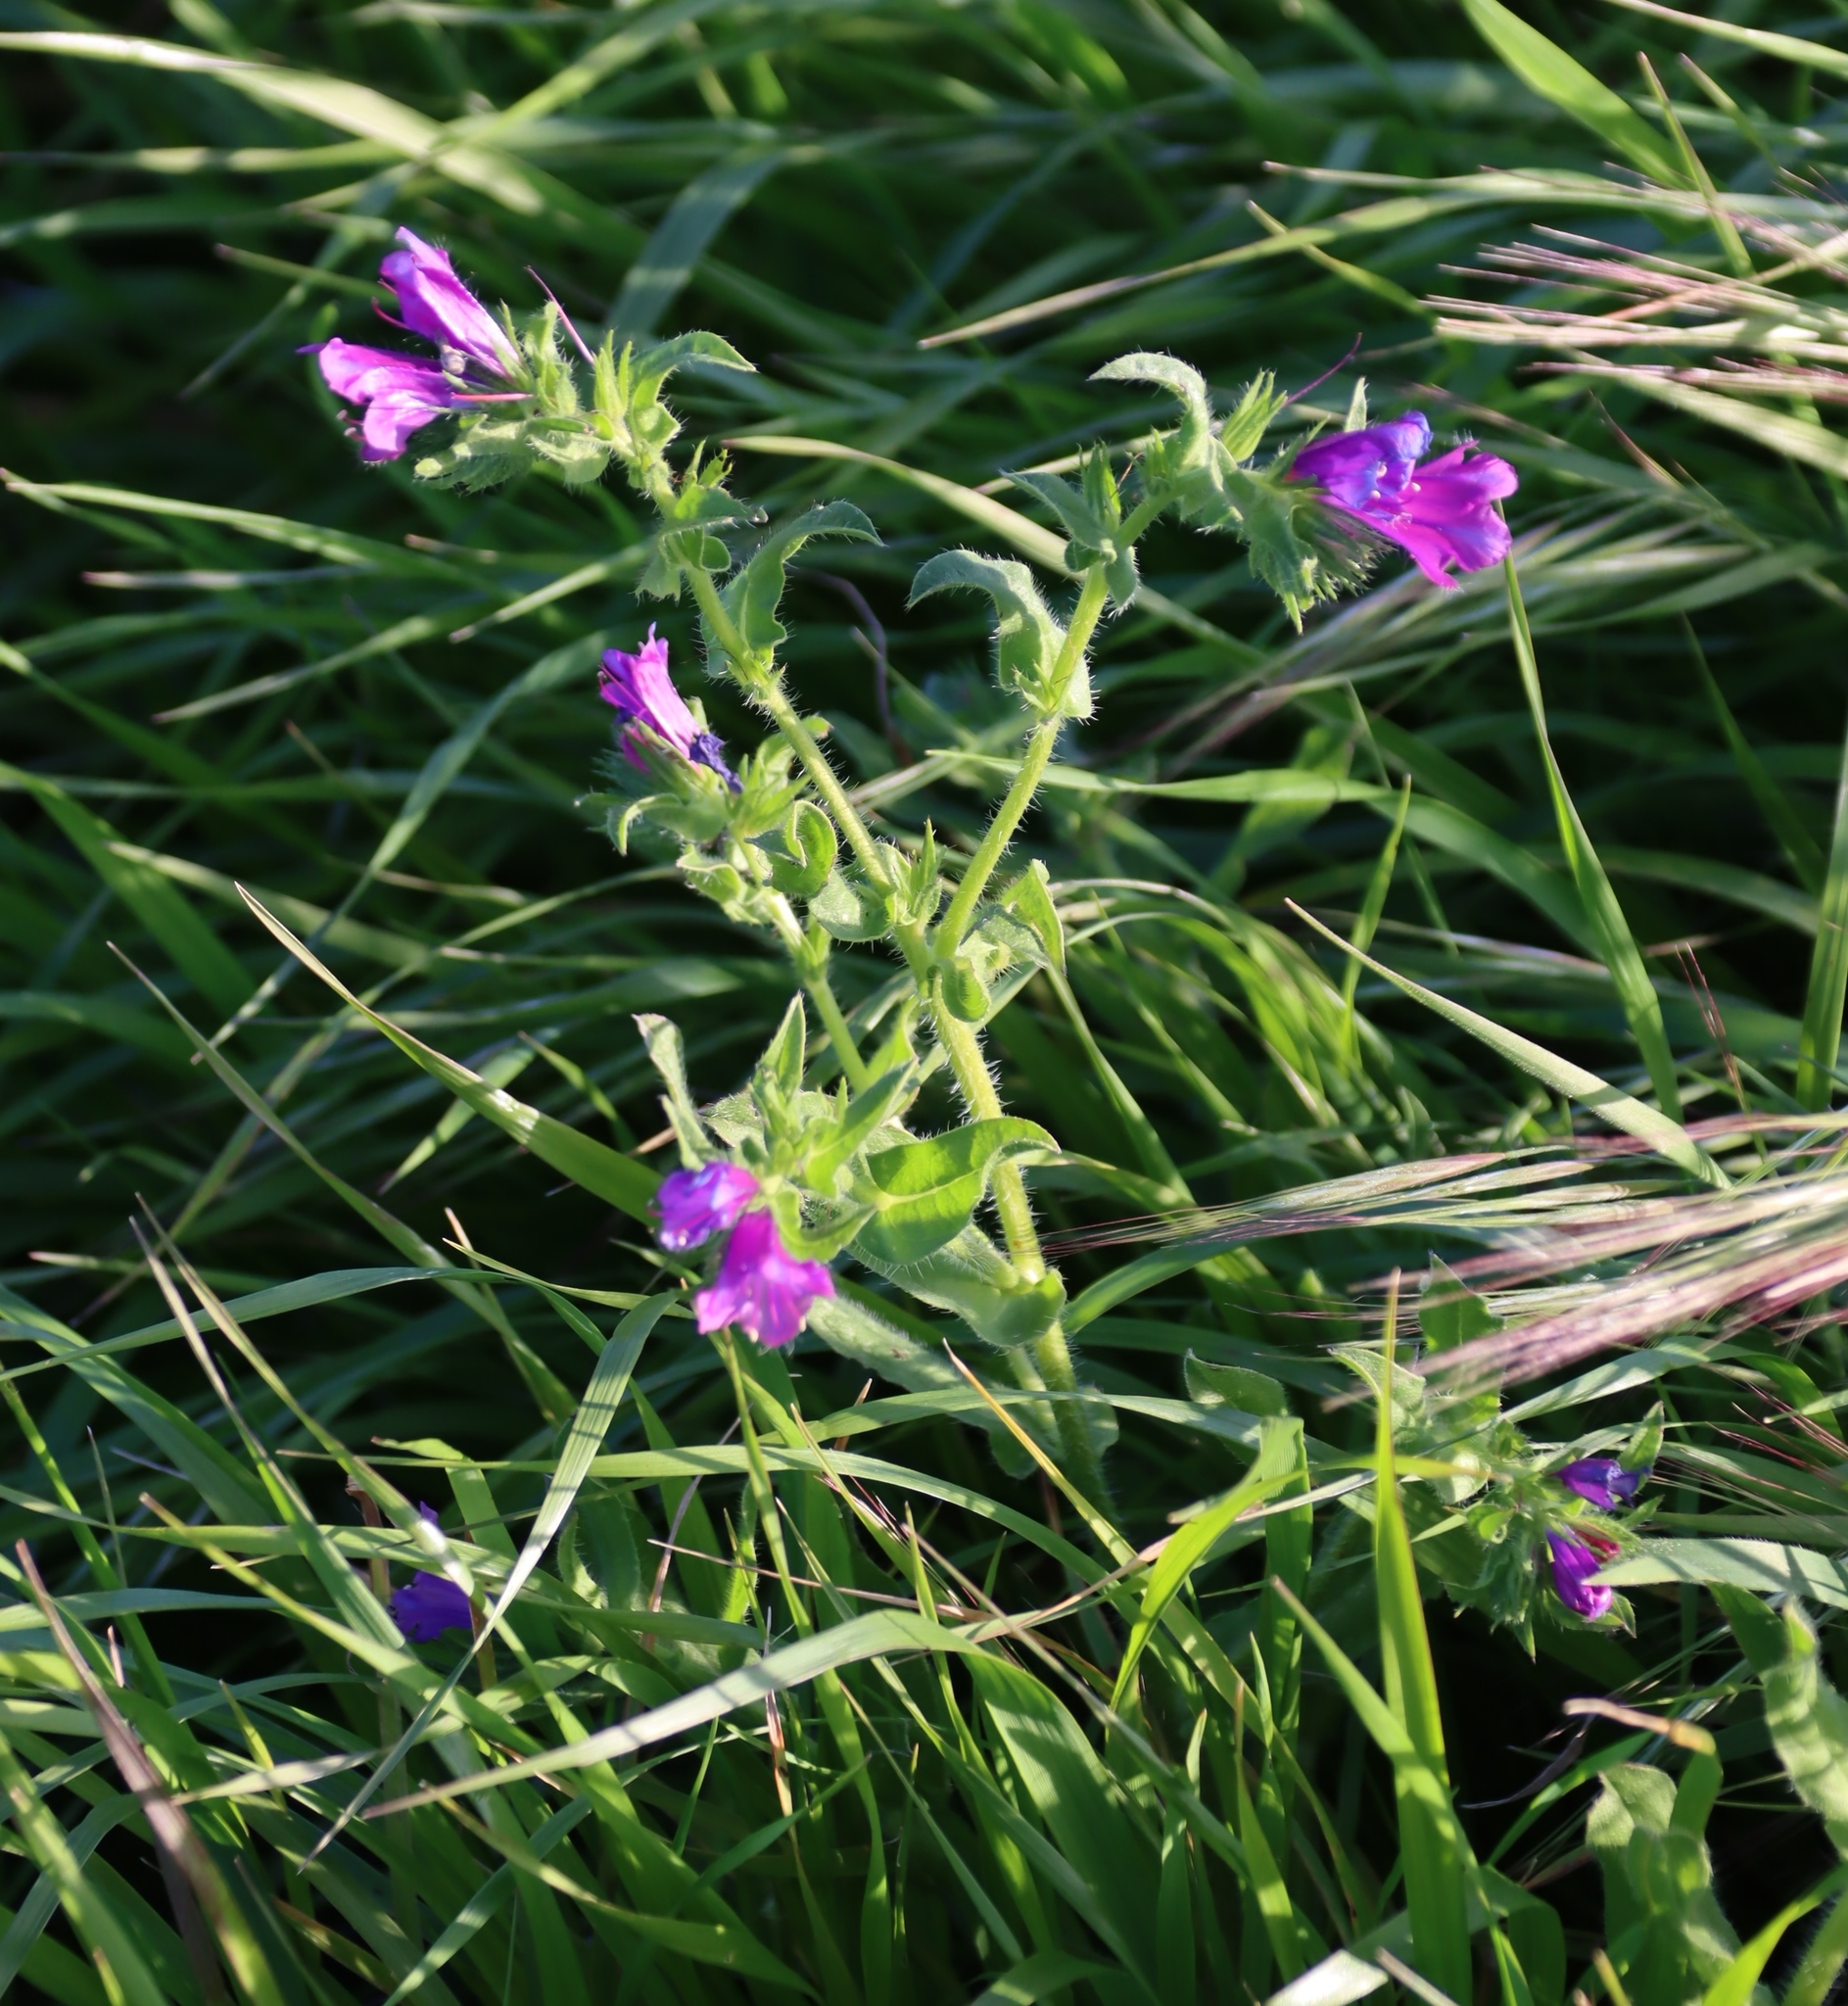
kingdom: Plantae
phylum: Tracheophyta
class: Magnoliopsida
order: Boraginales
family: Boraginaceae
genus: Echium
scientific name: Echium plantagineum
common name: Purple viper's-bugloss
